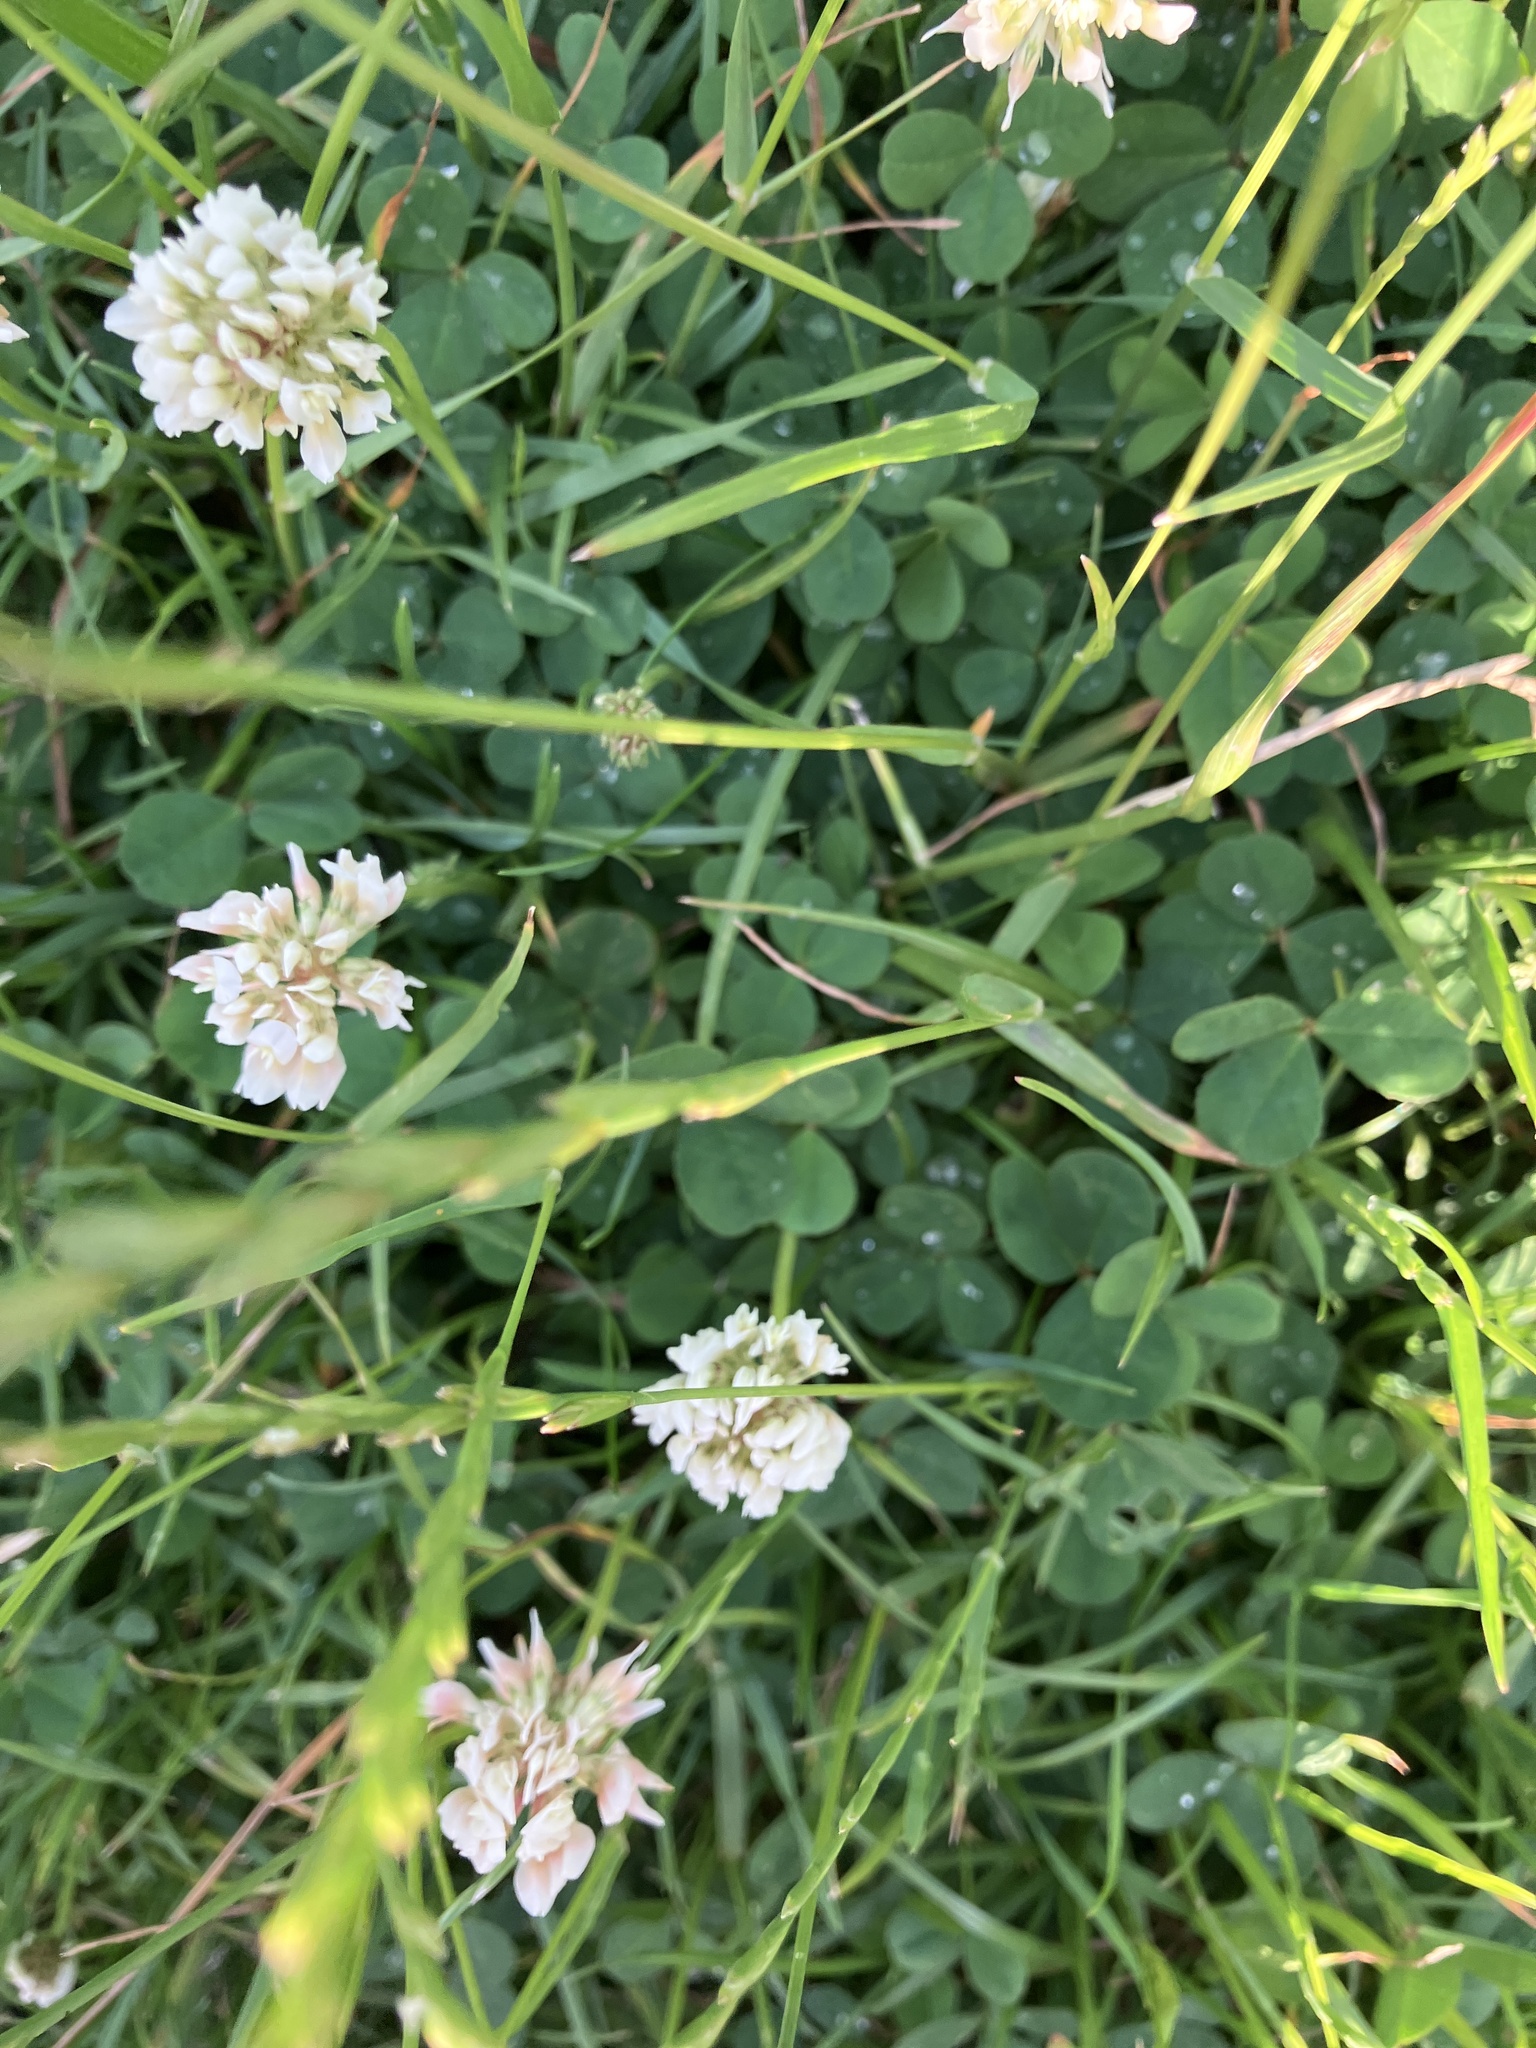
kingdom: Plantae
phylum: Tracheophyta
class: Magnoliopsida
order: Fabales
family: Fabaceae
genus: Trifolium
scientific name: Trifolium repens
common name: White clover
